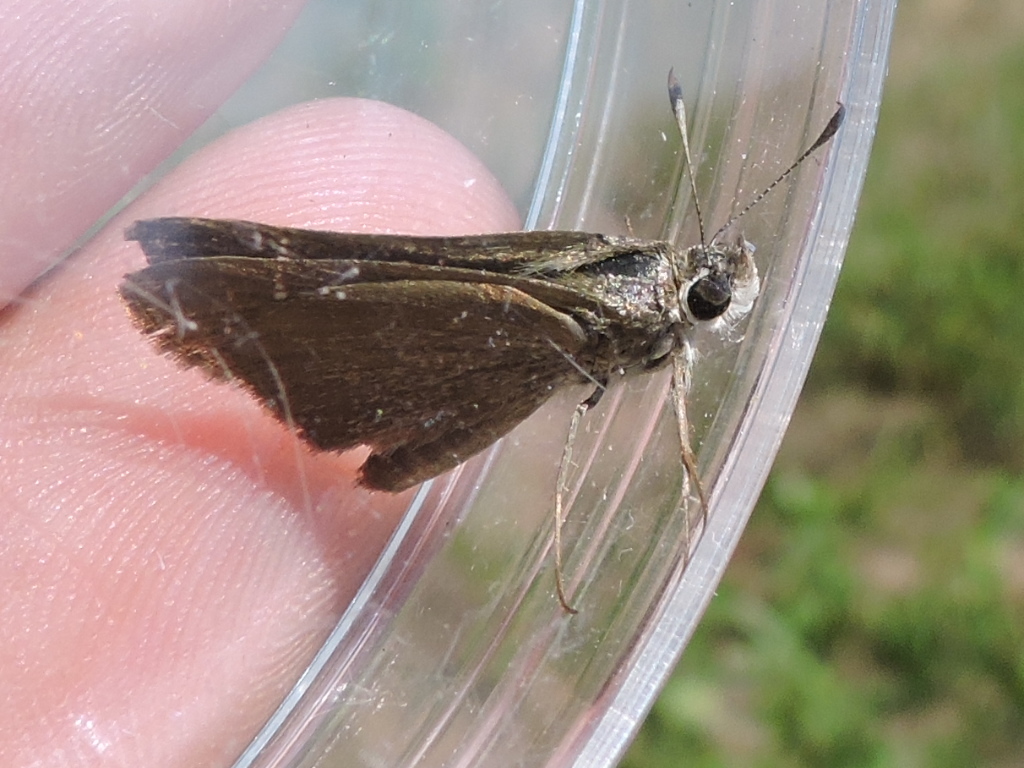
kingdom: Animalia
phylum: Arthropoda
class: Insecta
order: Lepidoptera
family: Hesperiidae
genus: Lerodea
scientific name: Lerodea eufala
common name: Eufala skipper
